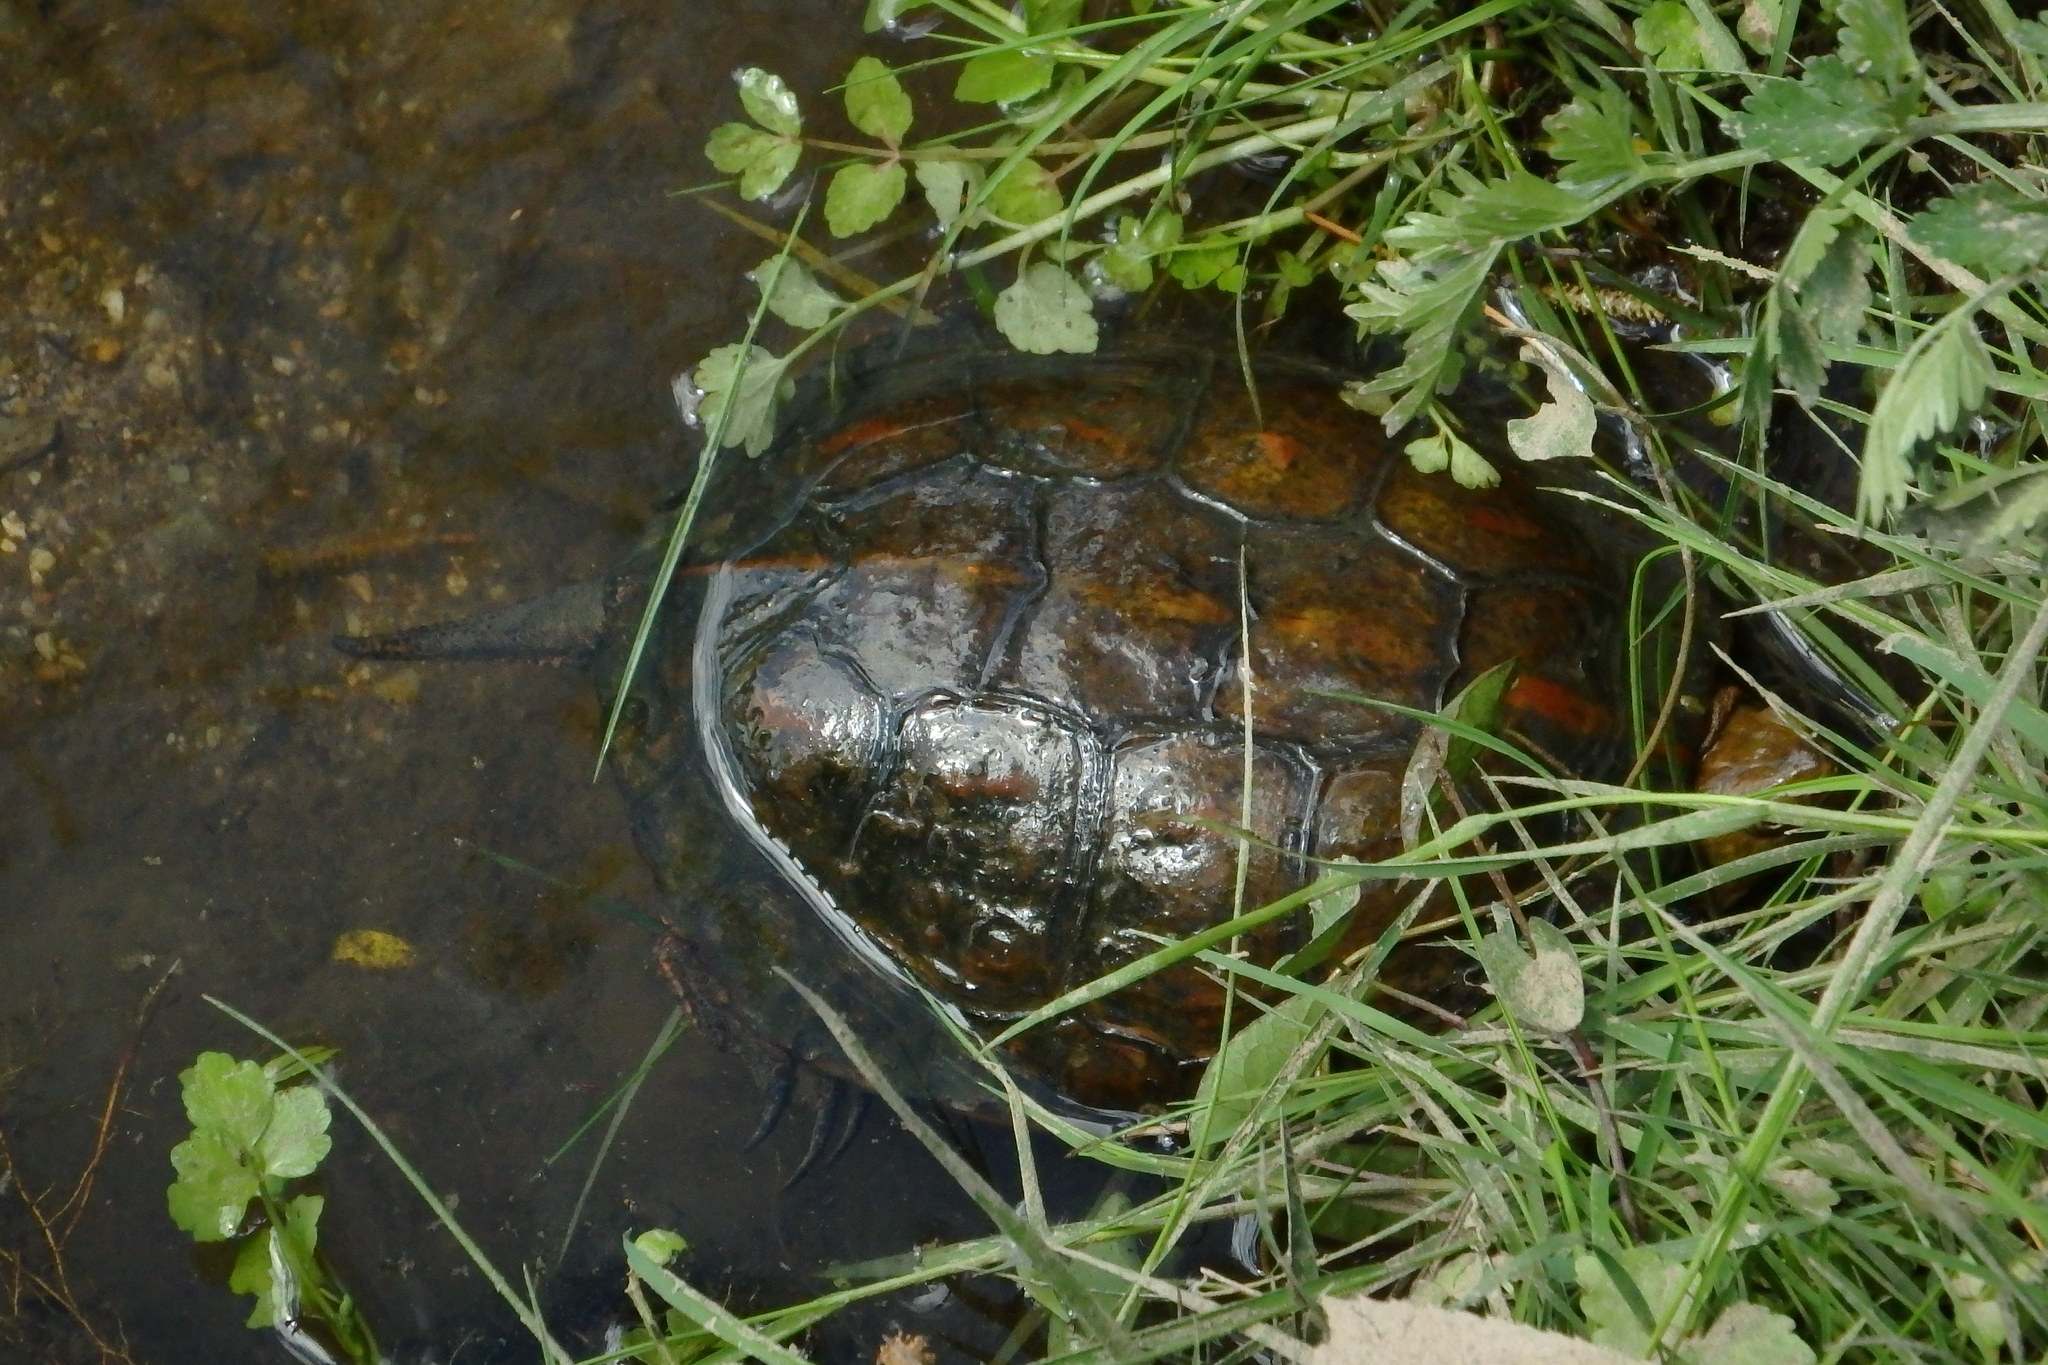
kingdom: Animalia
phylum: Chordata
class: Testudines
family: Geoemydidae
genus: Mauremys
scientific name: Mauremys leprosa
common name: Mediterranean pond turtle
